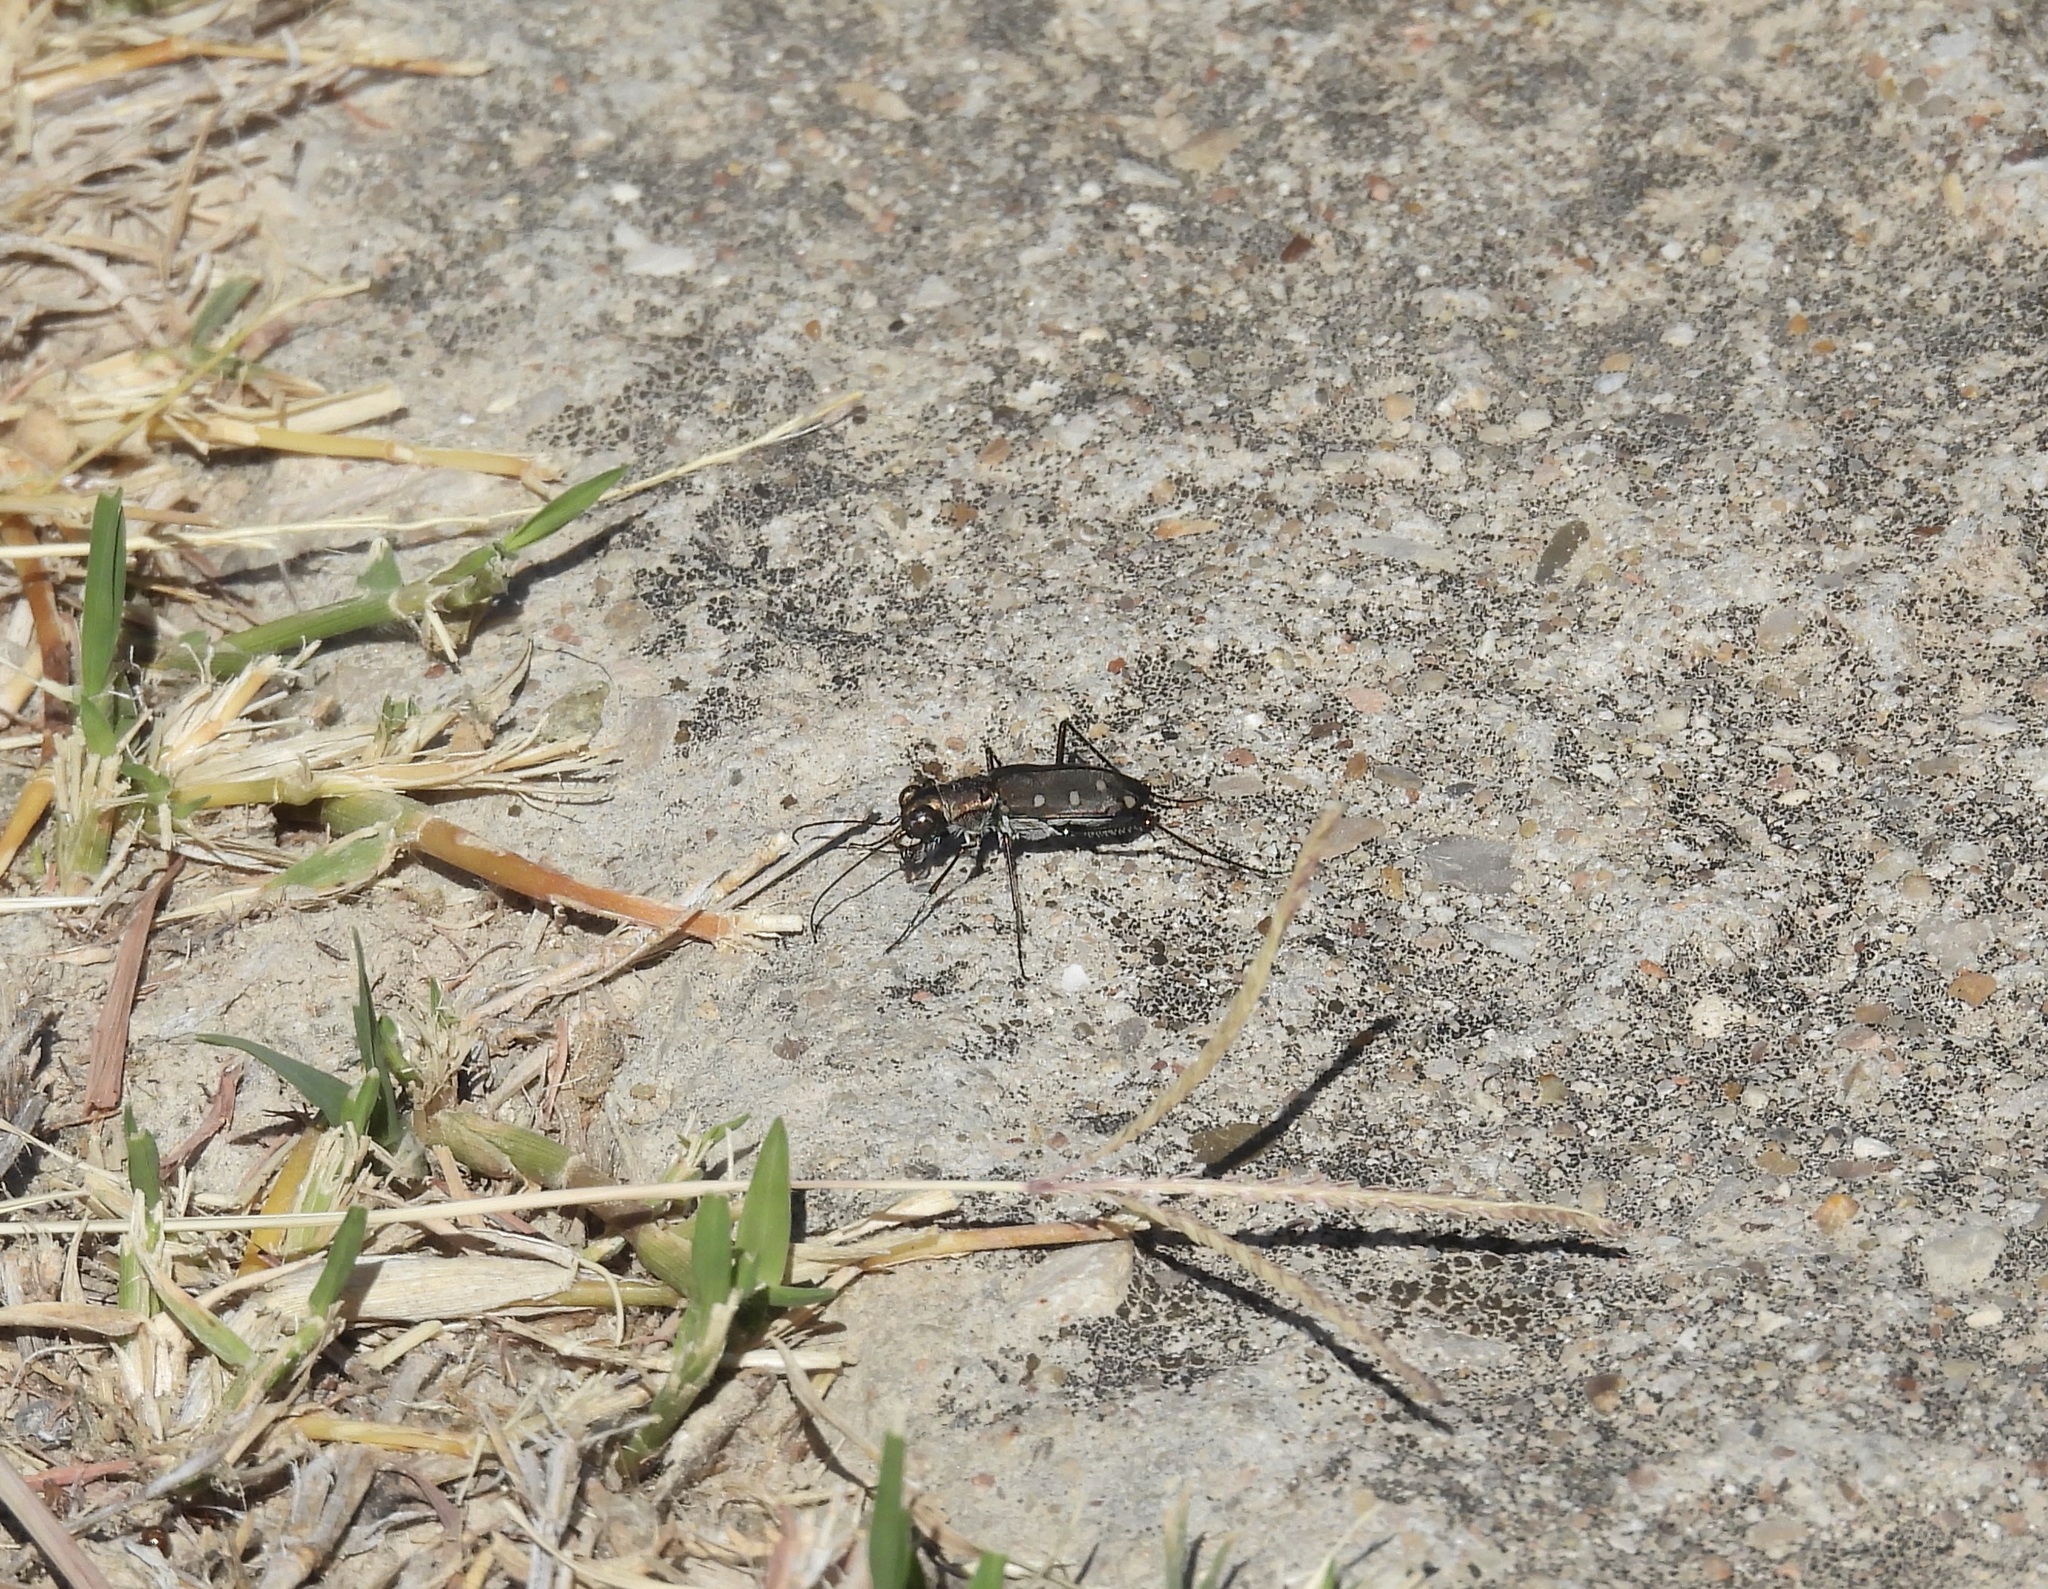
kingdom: Animalia
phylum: Arthropoda
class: Insecta
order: Coleoptera
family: Carabidae
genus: Cicindela
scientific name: Cicindela ocellata
